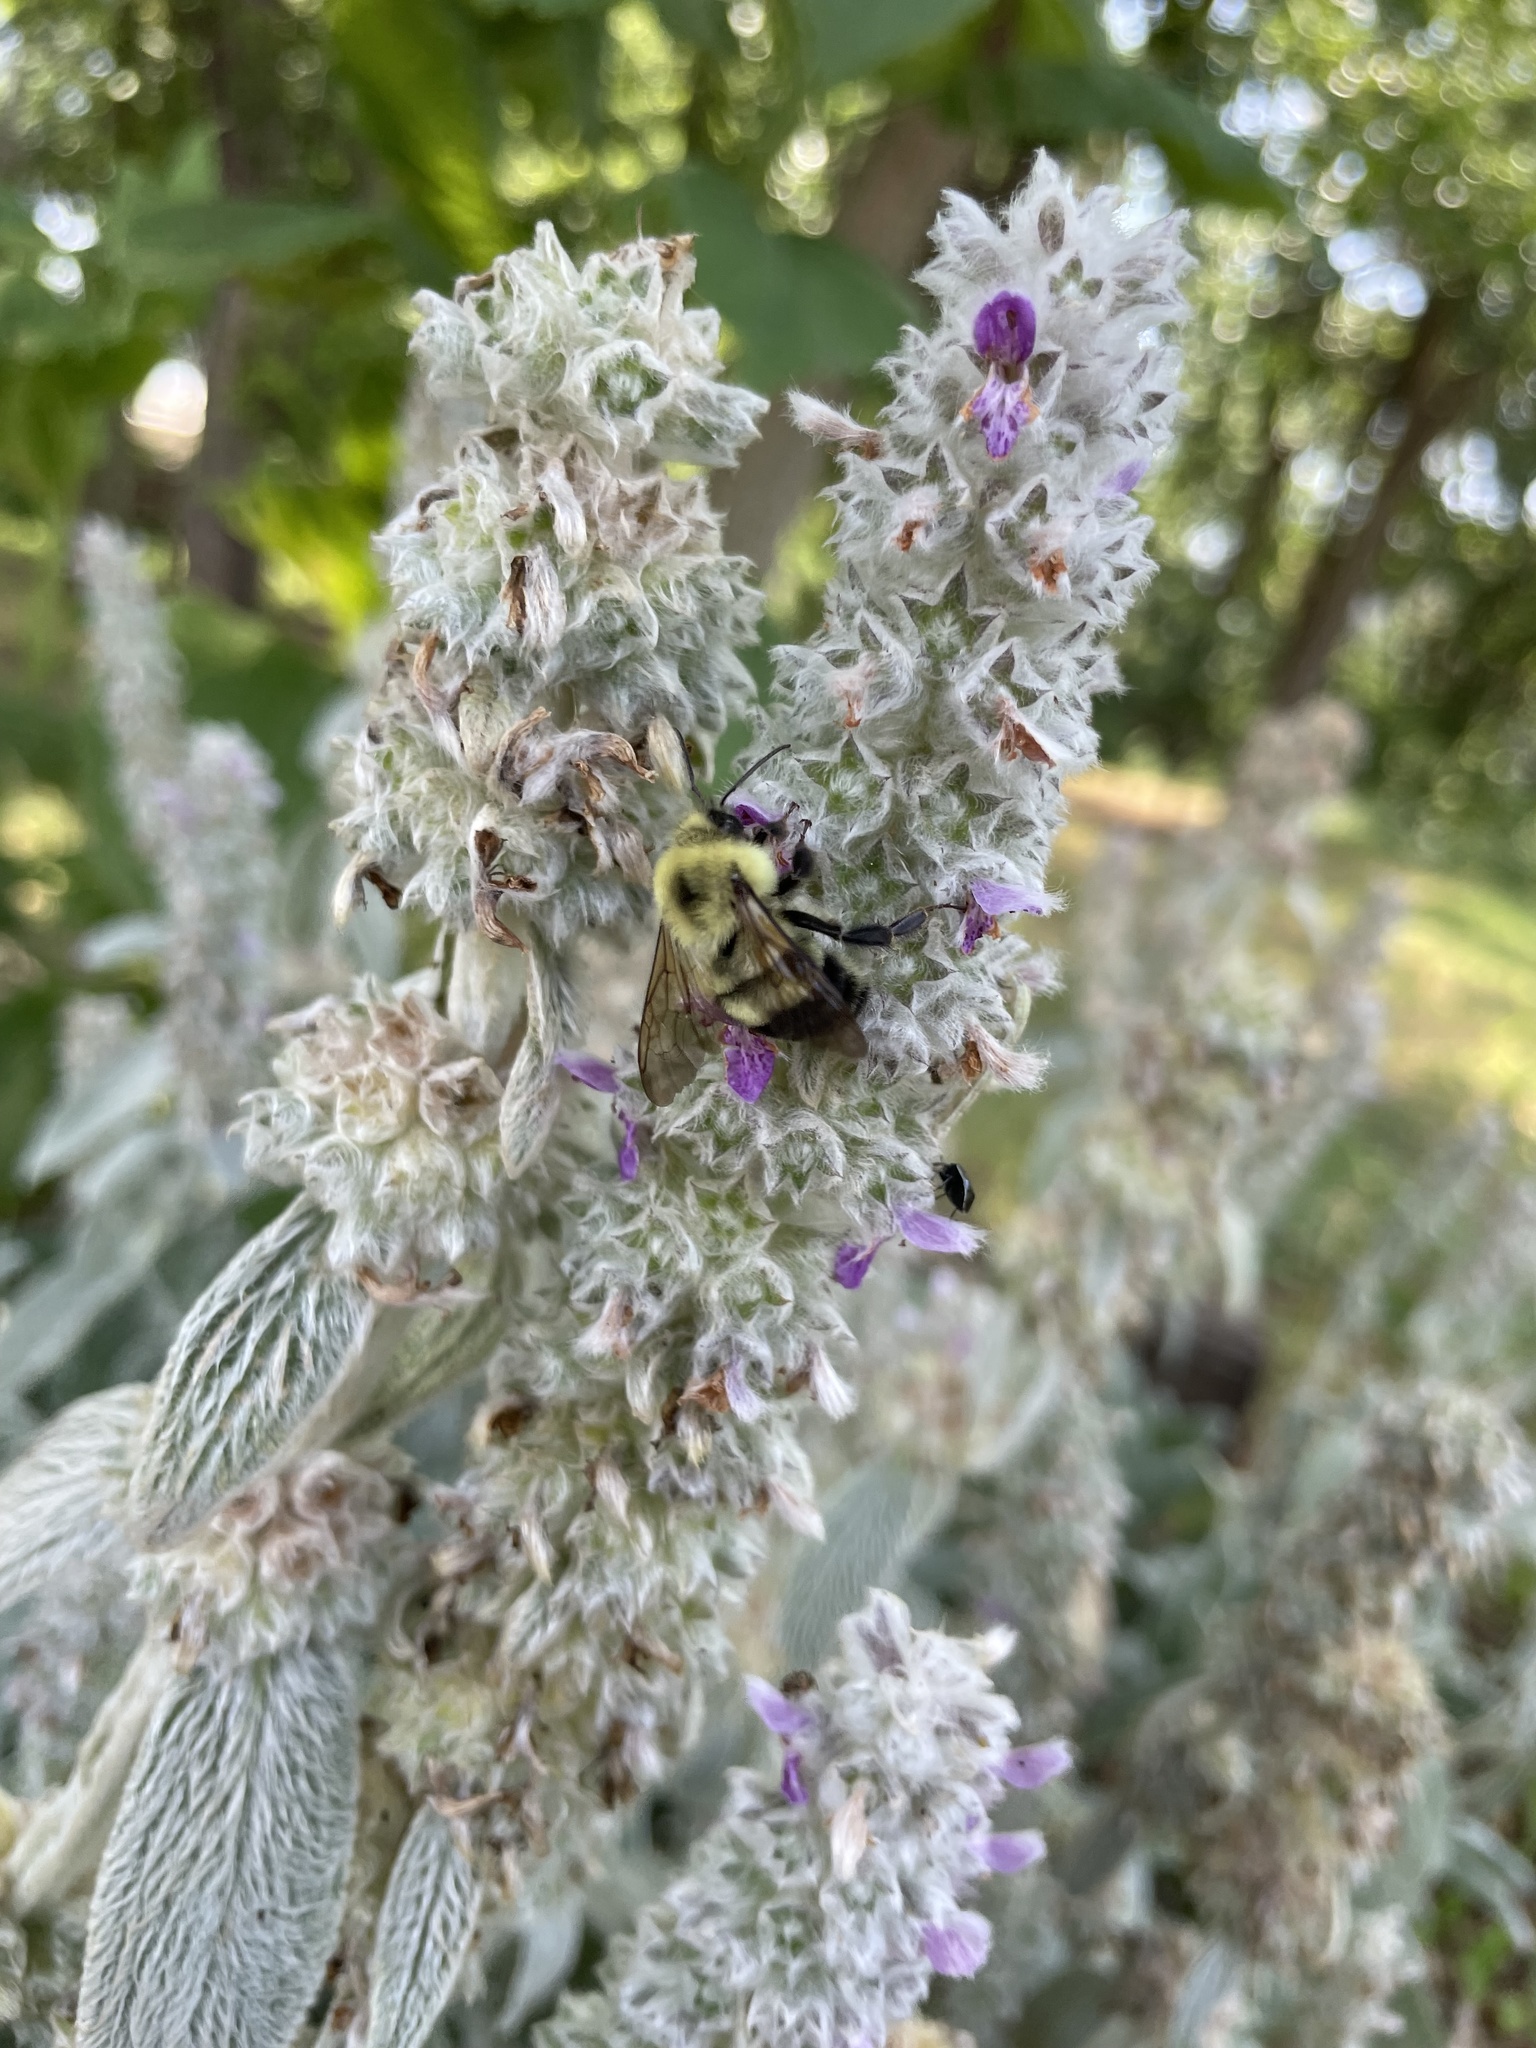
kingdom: Animalia
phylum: Arthropoda
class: Insecta
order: Hymenoptera
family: Apidae
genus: Bombus
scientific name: Bombus bimaculatus
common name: Two-spotted bumble bee
